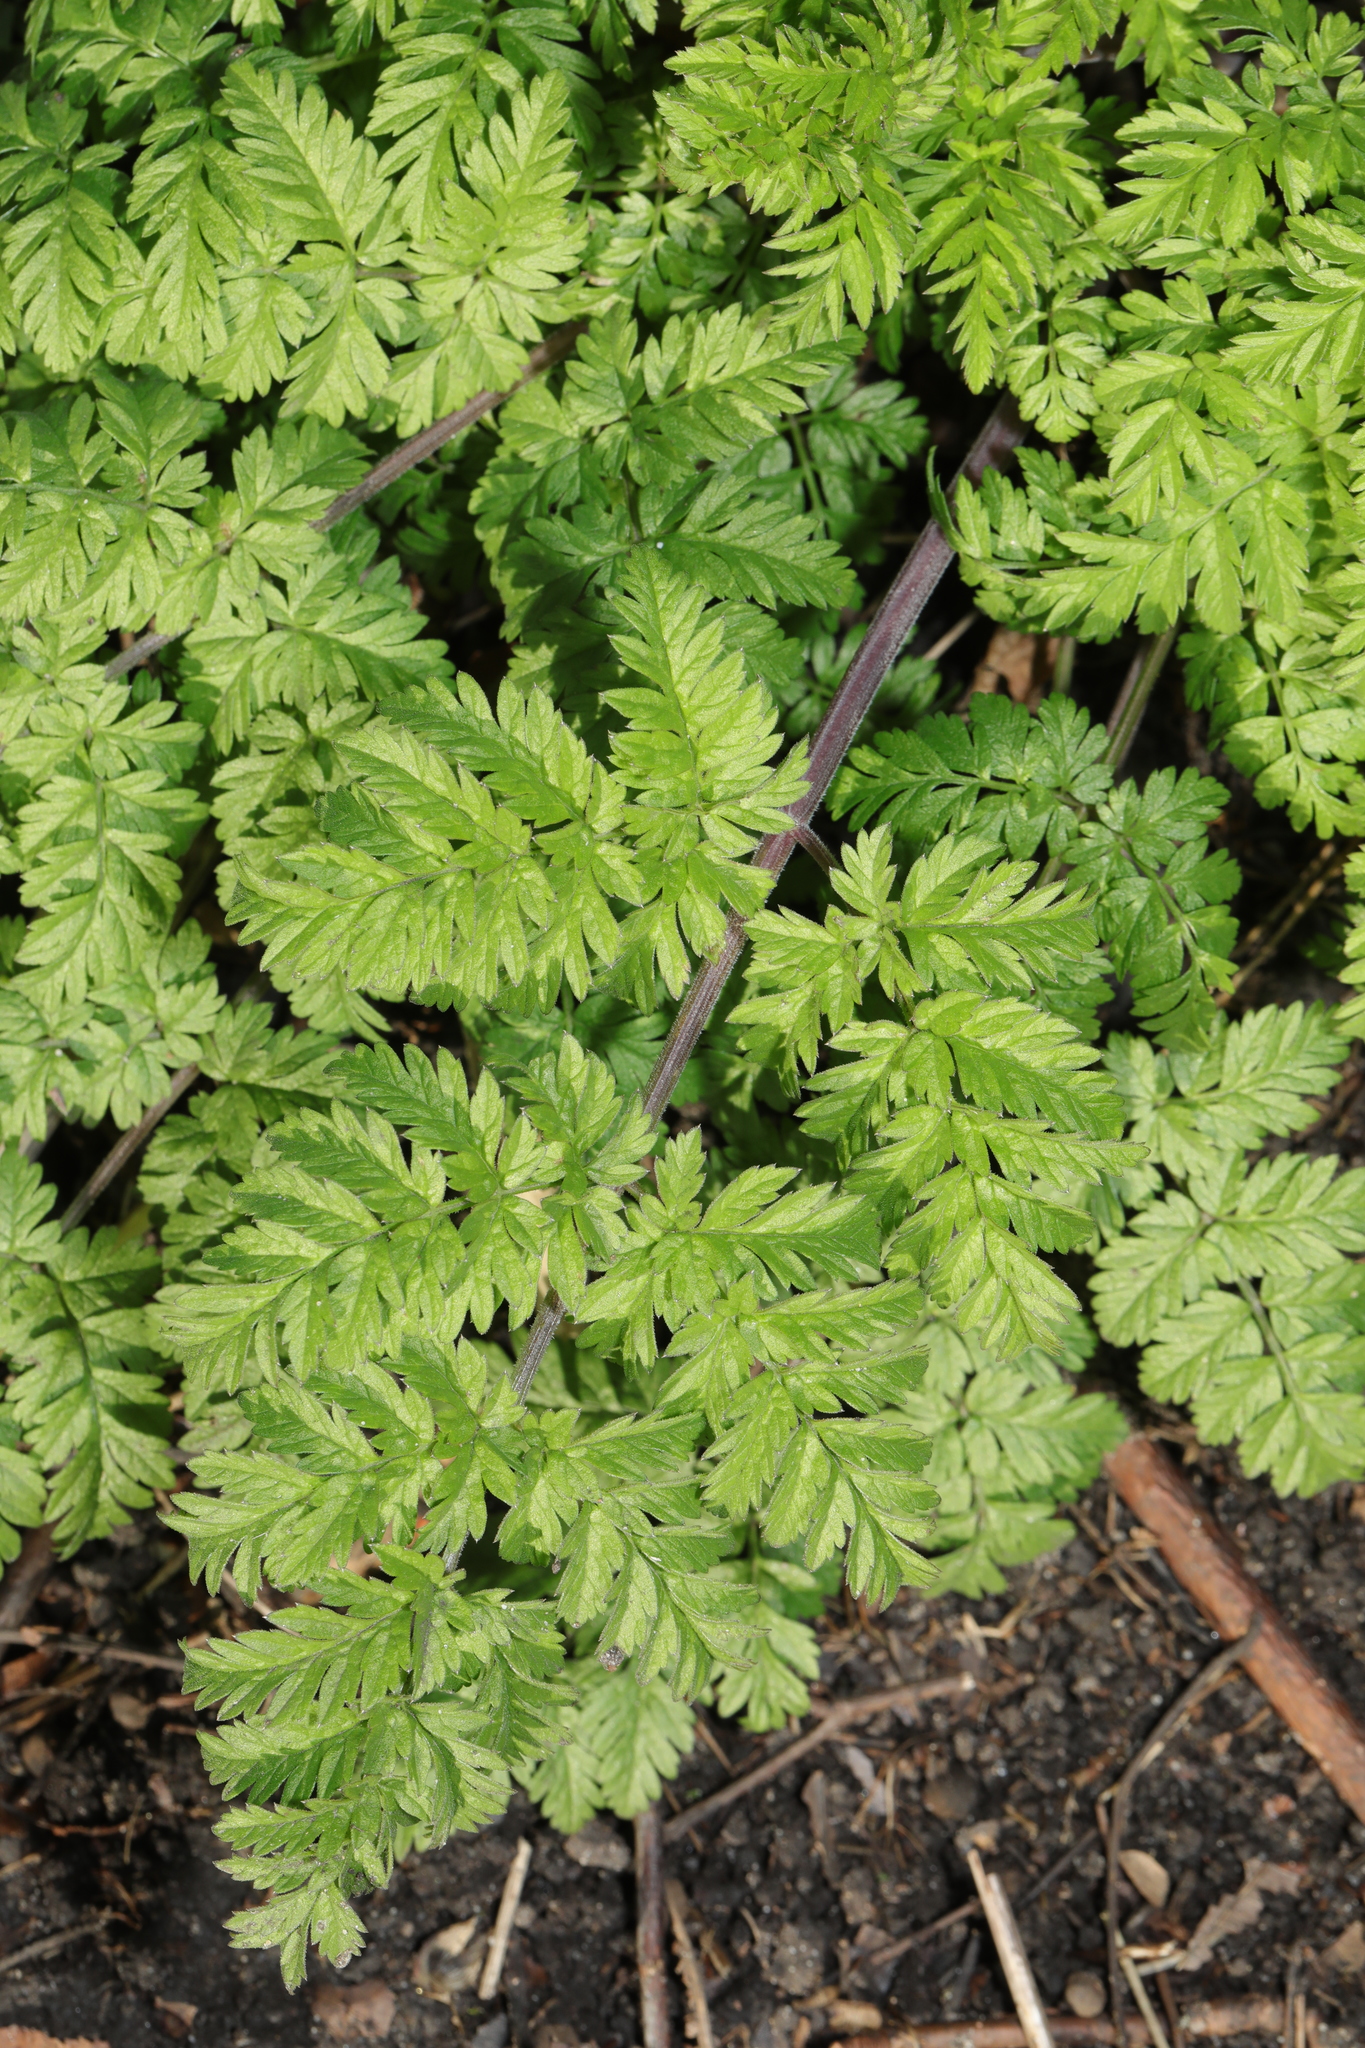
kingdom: Plantae
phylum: Tracheophyta
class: Magnoliopsida
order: Apiales
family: Apiaceae
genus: Anthriscus
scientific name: Anthriscus sylvestris
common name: Cow parsley
